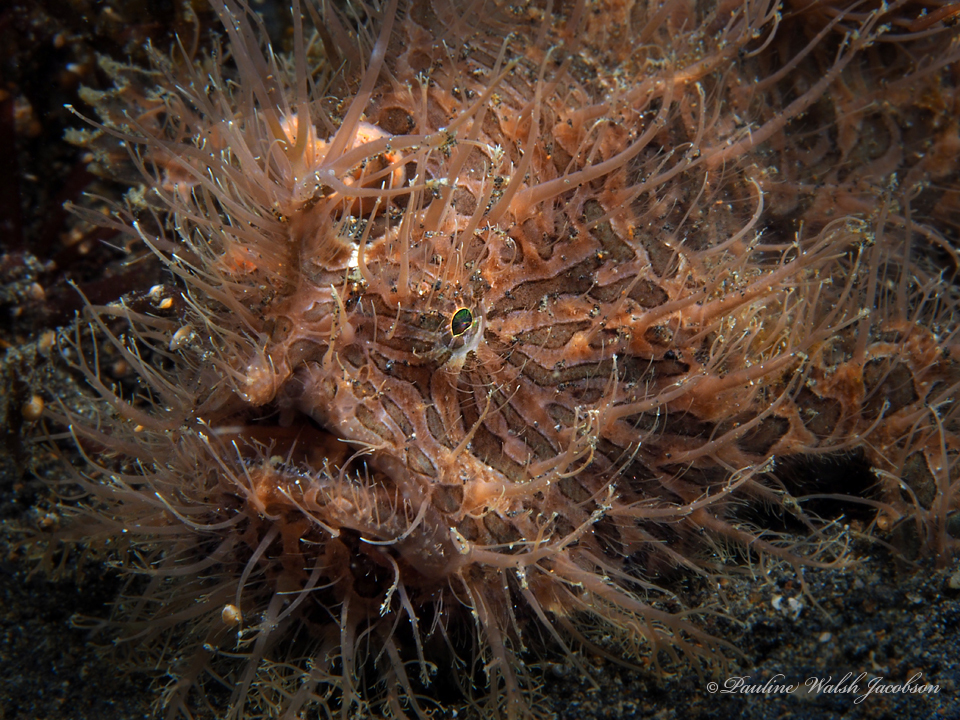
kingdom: Animalia
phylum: Chordata
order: Lophiiformes
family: Antennariidae
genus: Antennarius
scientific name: Antennarius striatus
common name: Striated frogfish
